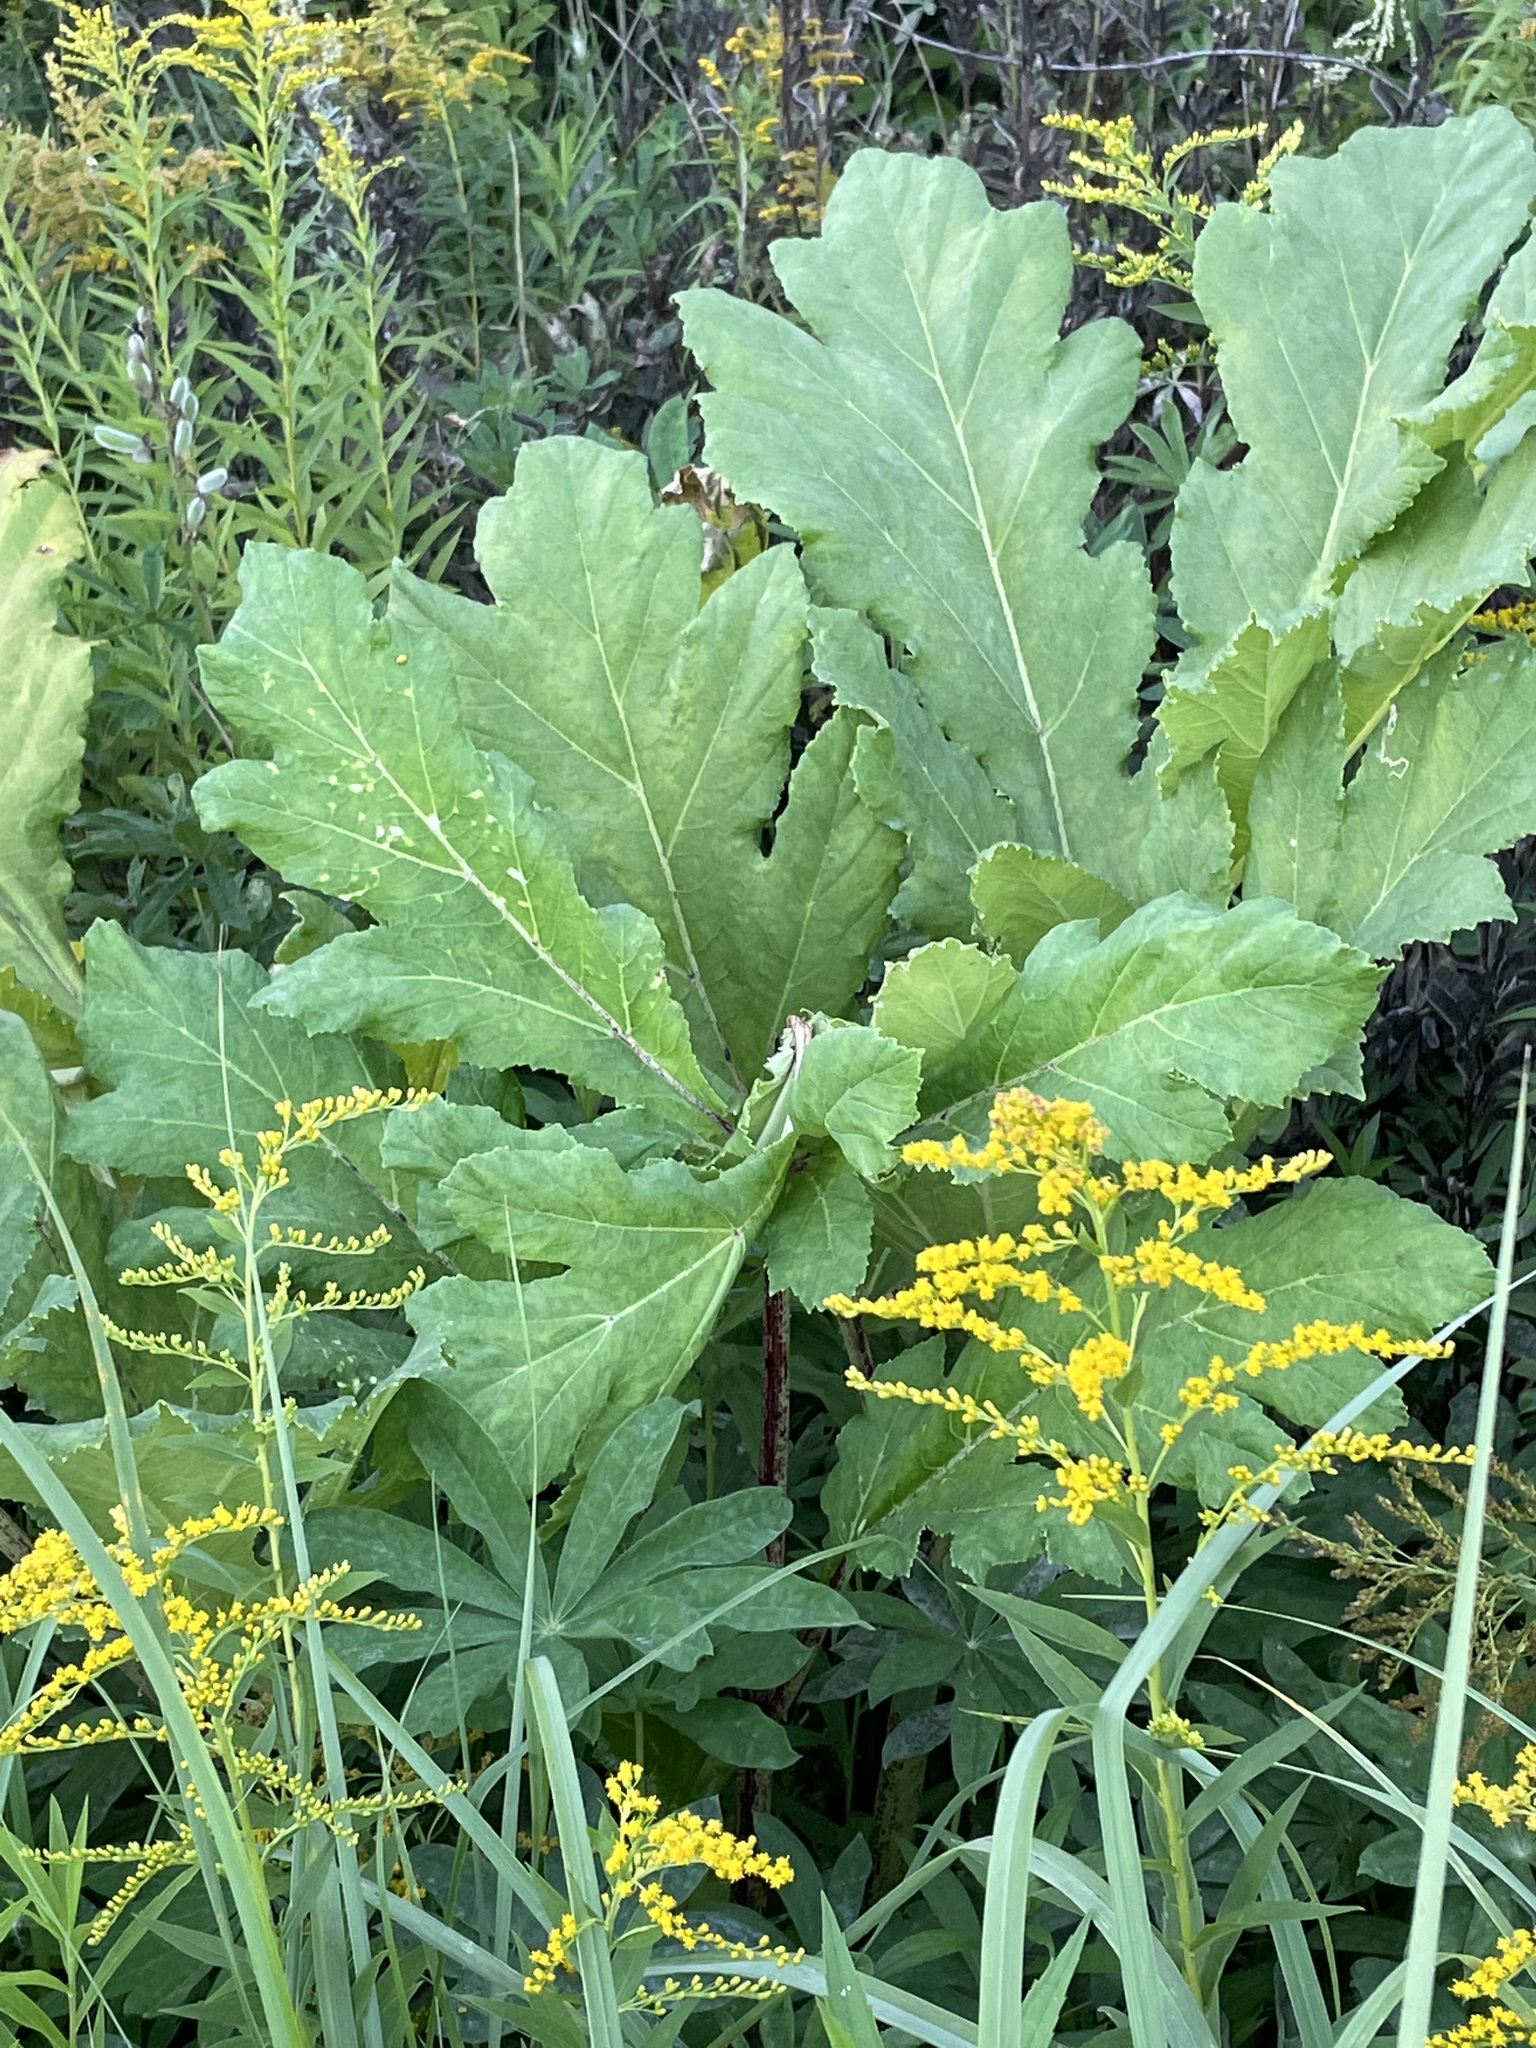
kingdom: Plantae
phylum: Tracheophyta
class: Magnoliopsida
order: Apiales
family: Apiaceae
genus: Heracleum
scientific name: Heracleum sosnowskyi
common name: Sosnowsky's hogweed
